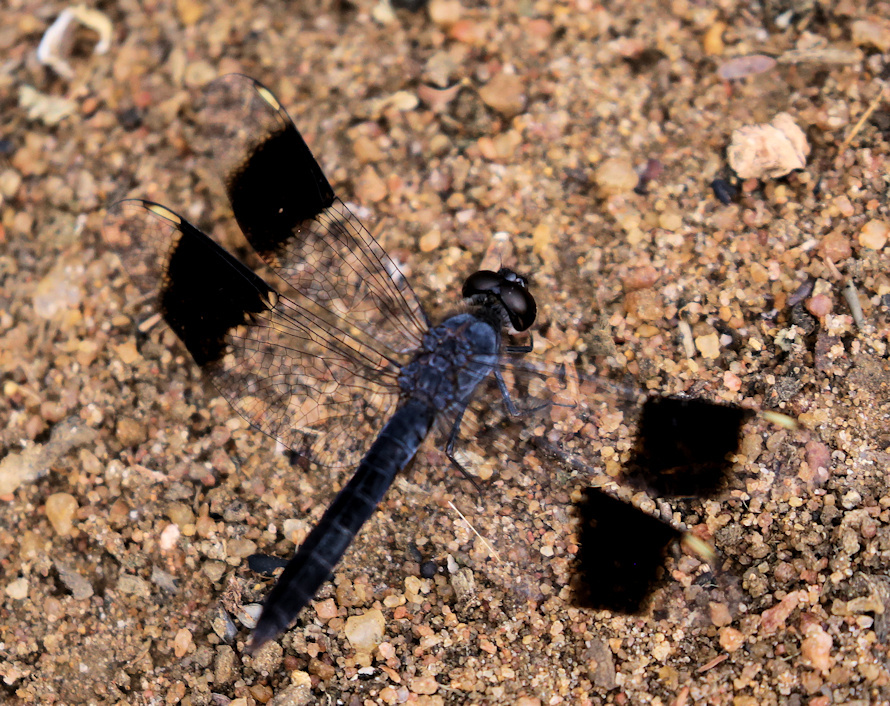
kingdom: Animalia
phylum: Arthropoda
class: Insecta
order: Odonata
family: Libellulidae
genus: Brachythemis
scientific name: Brachythemis leucosticta
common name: Banded groundling
